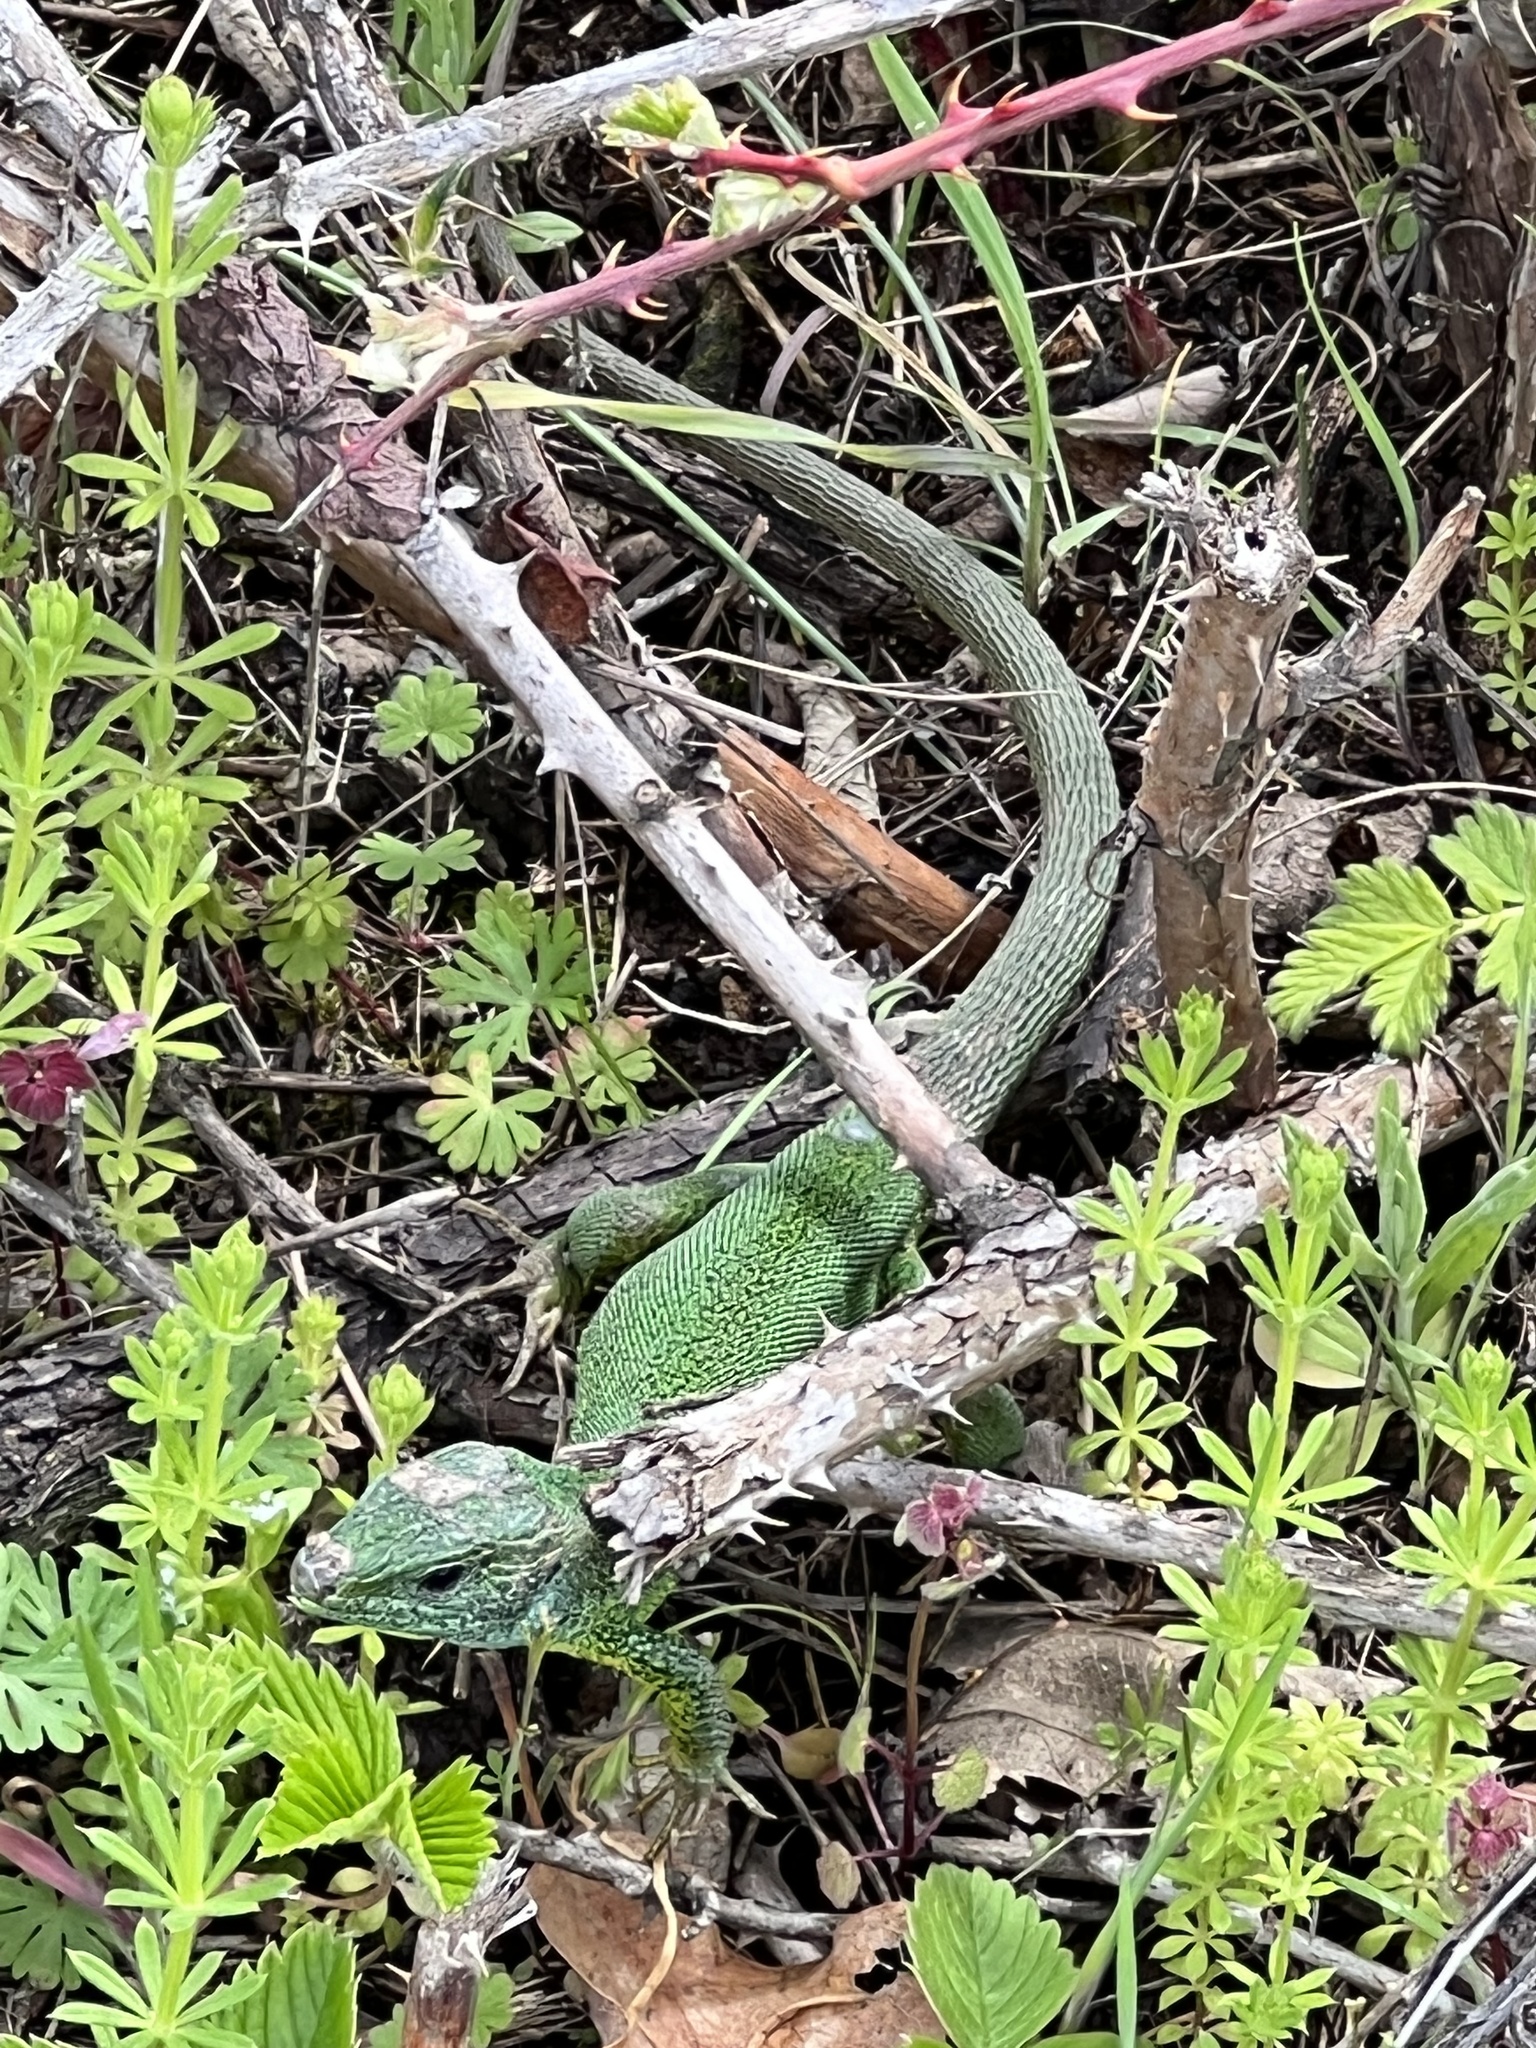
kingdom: Animalia
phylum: Chordata
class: Squamata
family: Lacertidae
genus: Lacerta
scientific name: Lacerta viridis
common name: European green lizard
